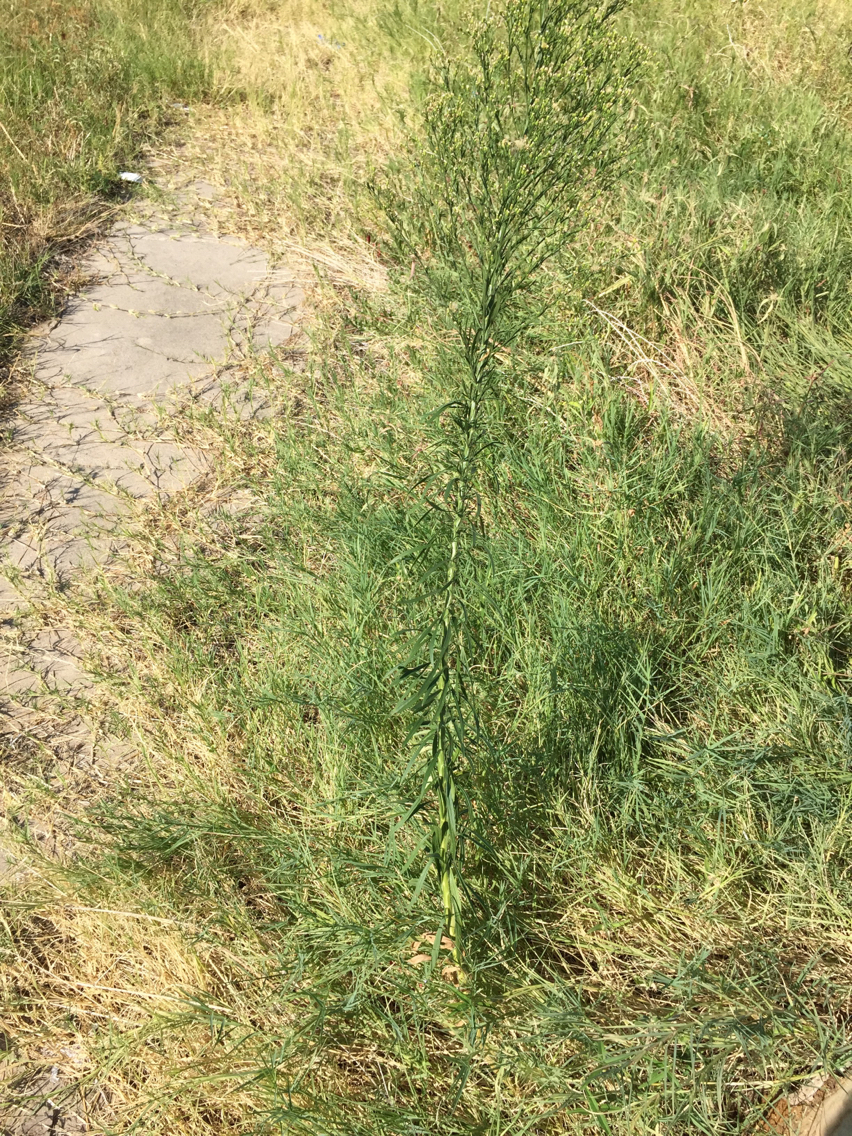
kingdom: Plantae
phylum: Tracheophyta
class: Magnoliopsida
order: Asterales
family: Asteraceae
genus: Erigeron
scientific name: Erigeron canadensis
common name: Canadian fleabane
